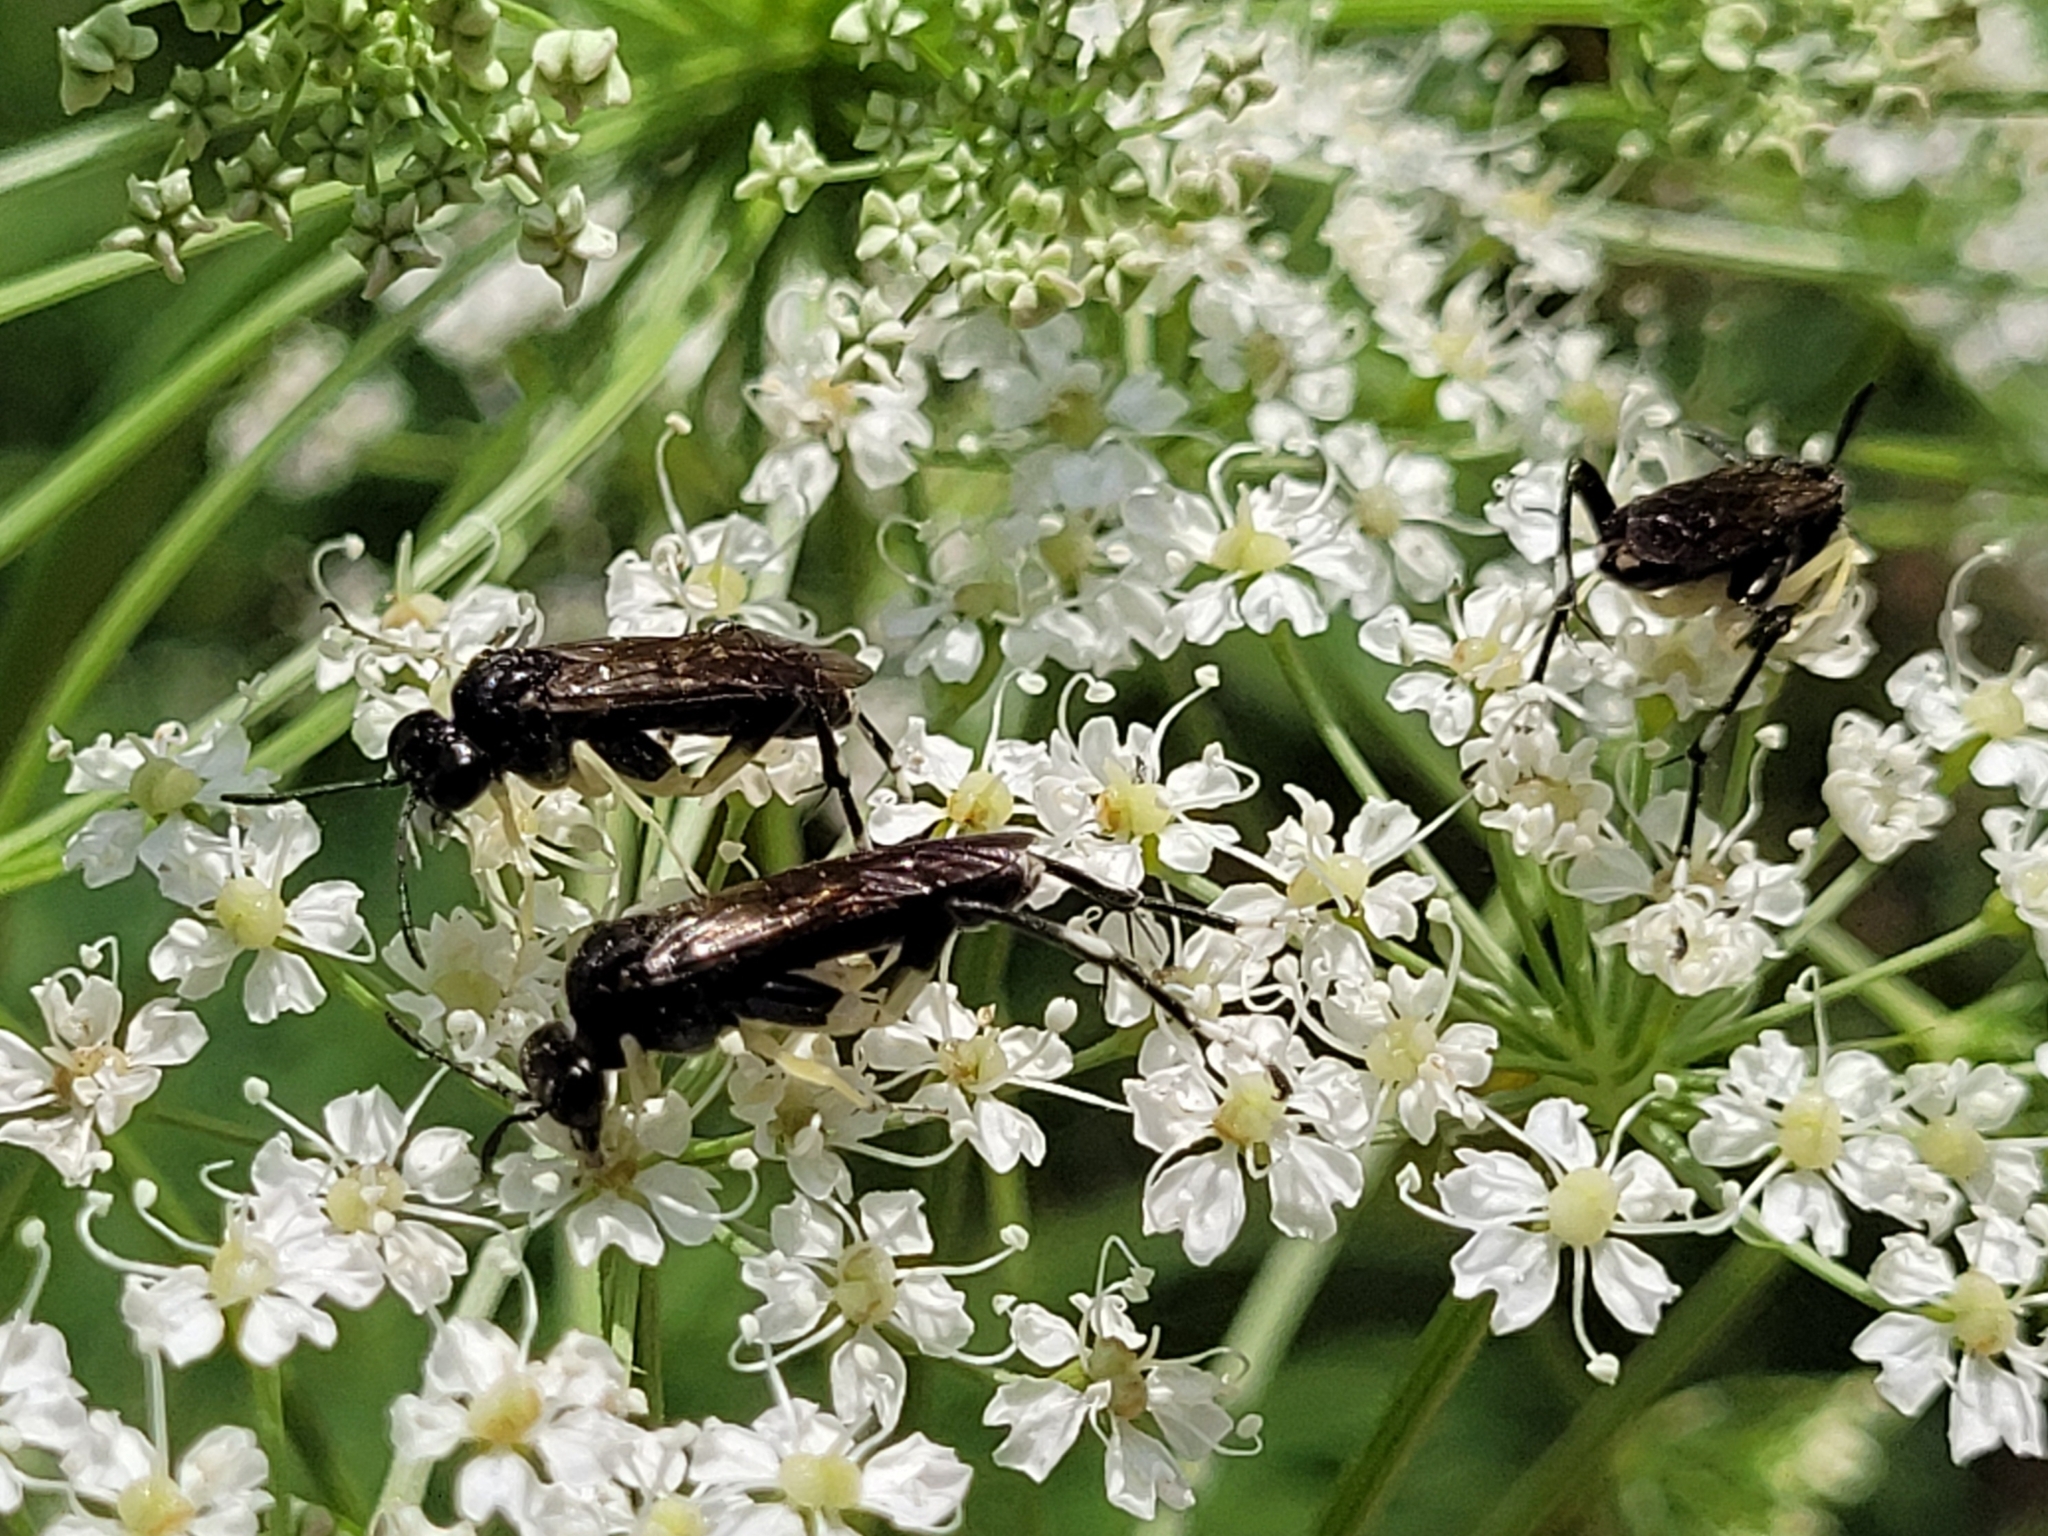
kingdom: Animalia
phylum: Arthropoda
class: Insecta
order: Hymenoptera
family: Tenthredinidae
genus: Macrophya
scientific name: Macrophya montana
